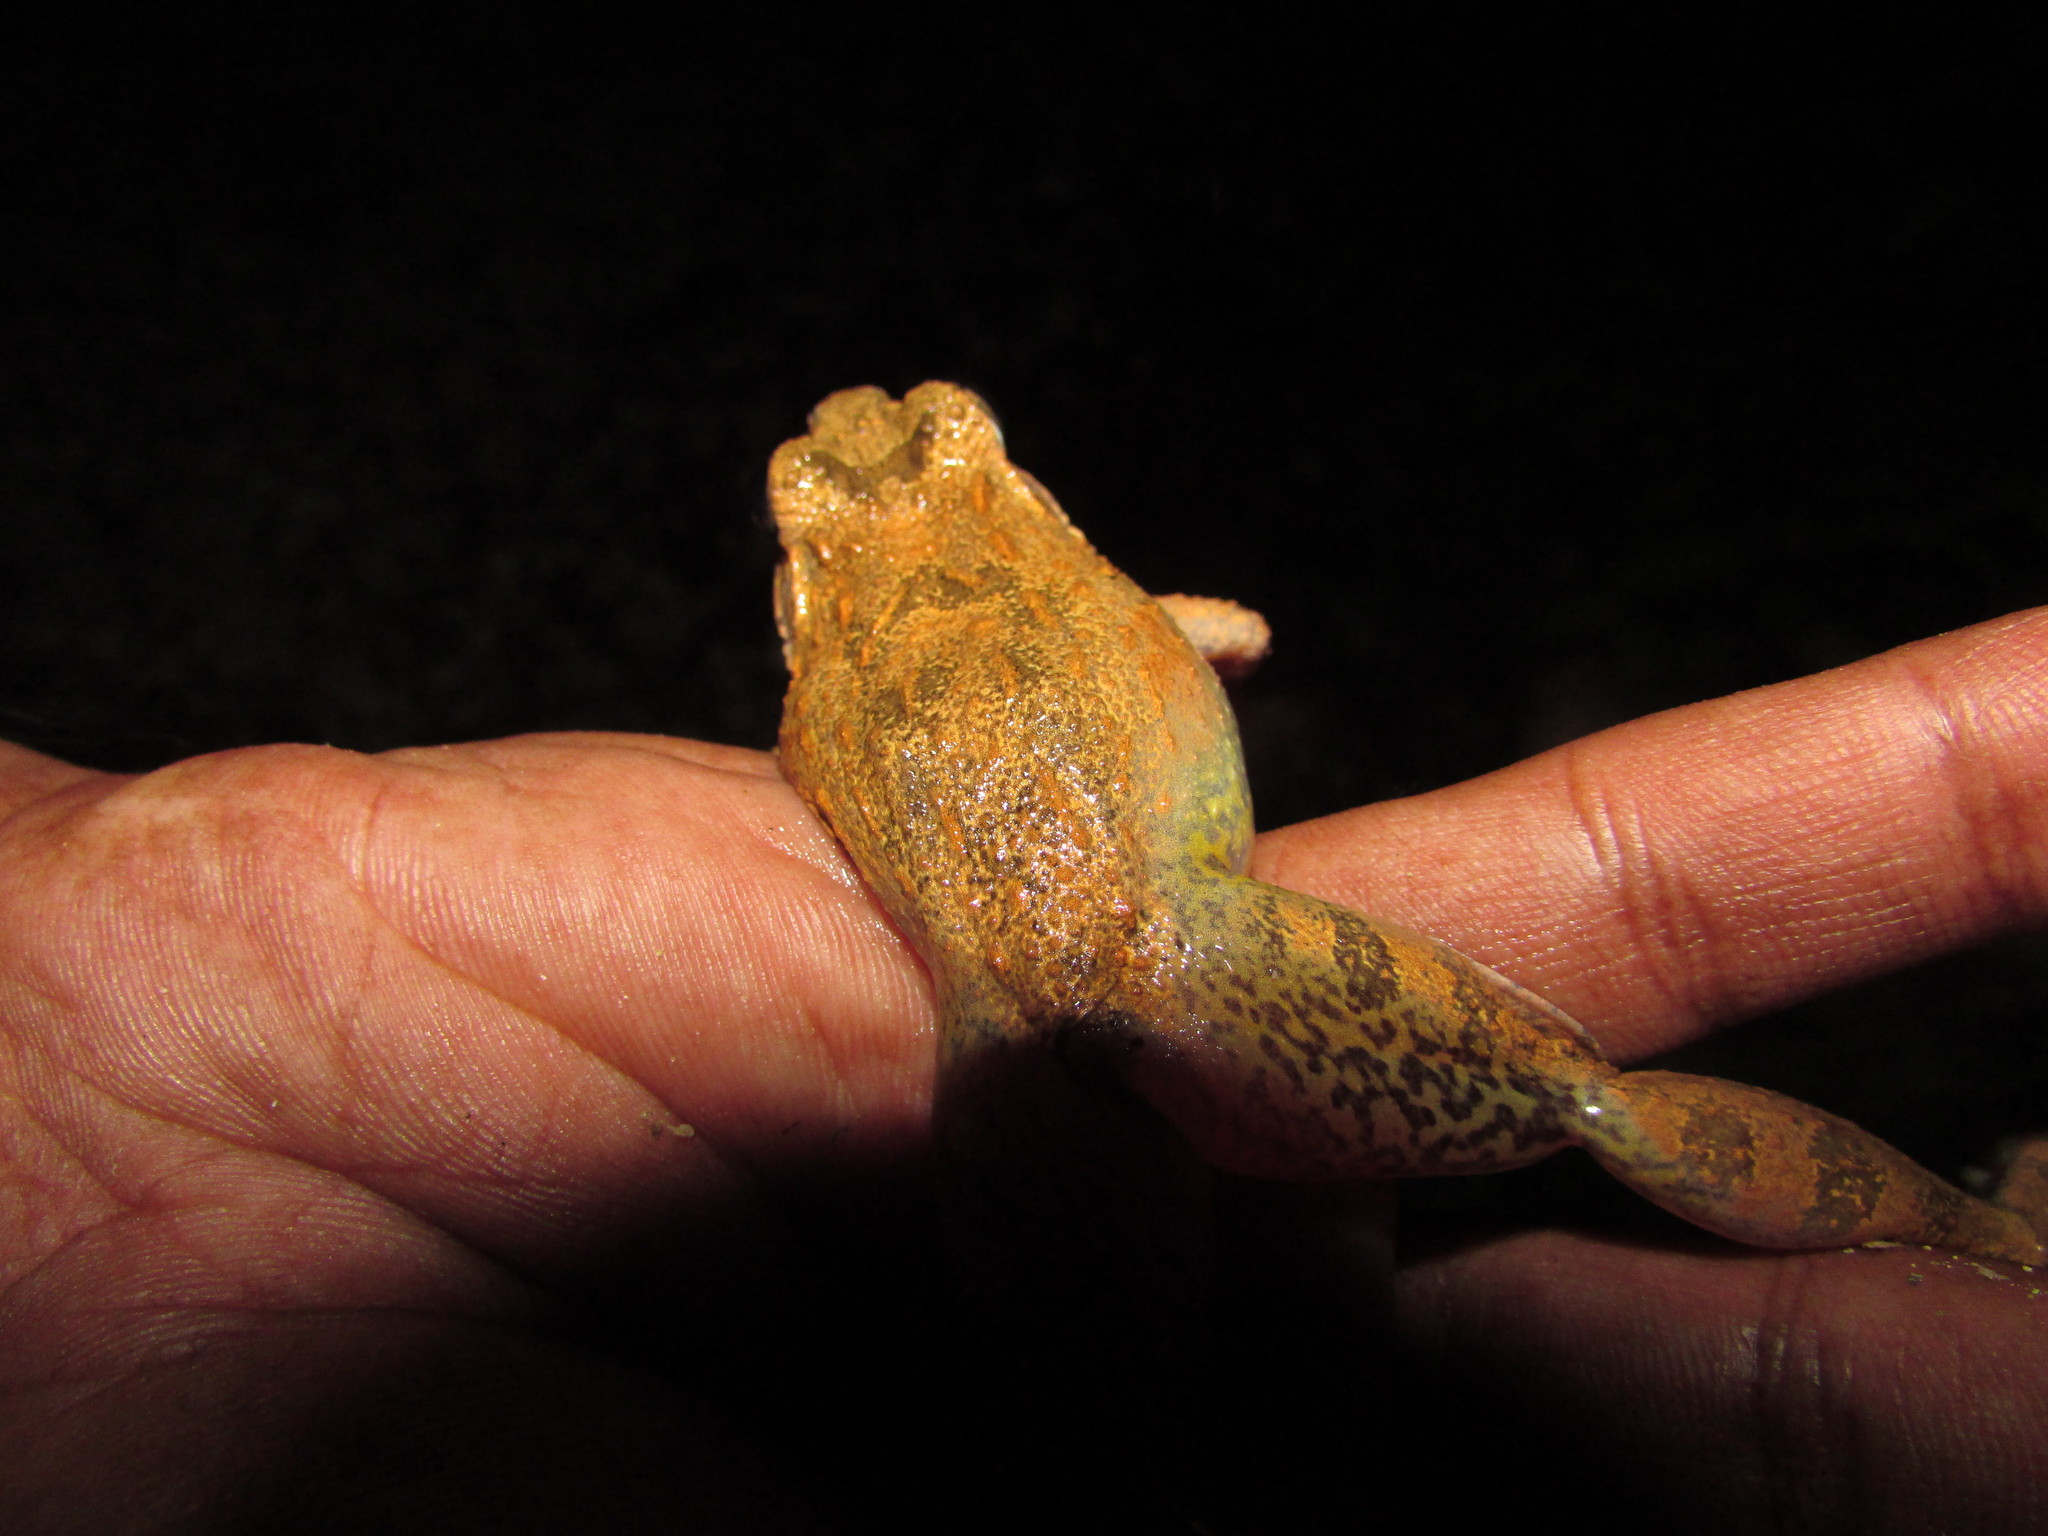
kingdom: Animalia
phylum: Chordata
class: Amphibia
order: Anura
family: Dicroglossidae
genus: Minervarya
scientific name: Minervarya andamanensis
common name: Andaman wart frog
